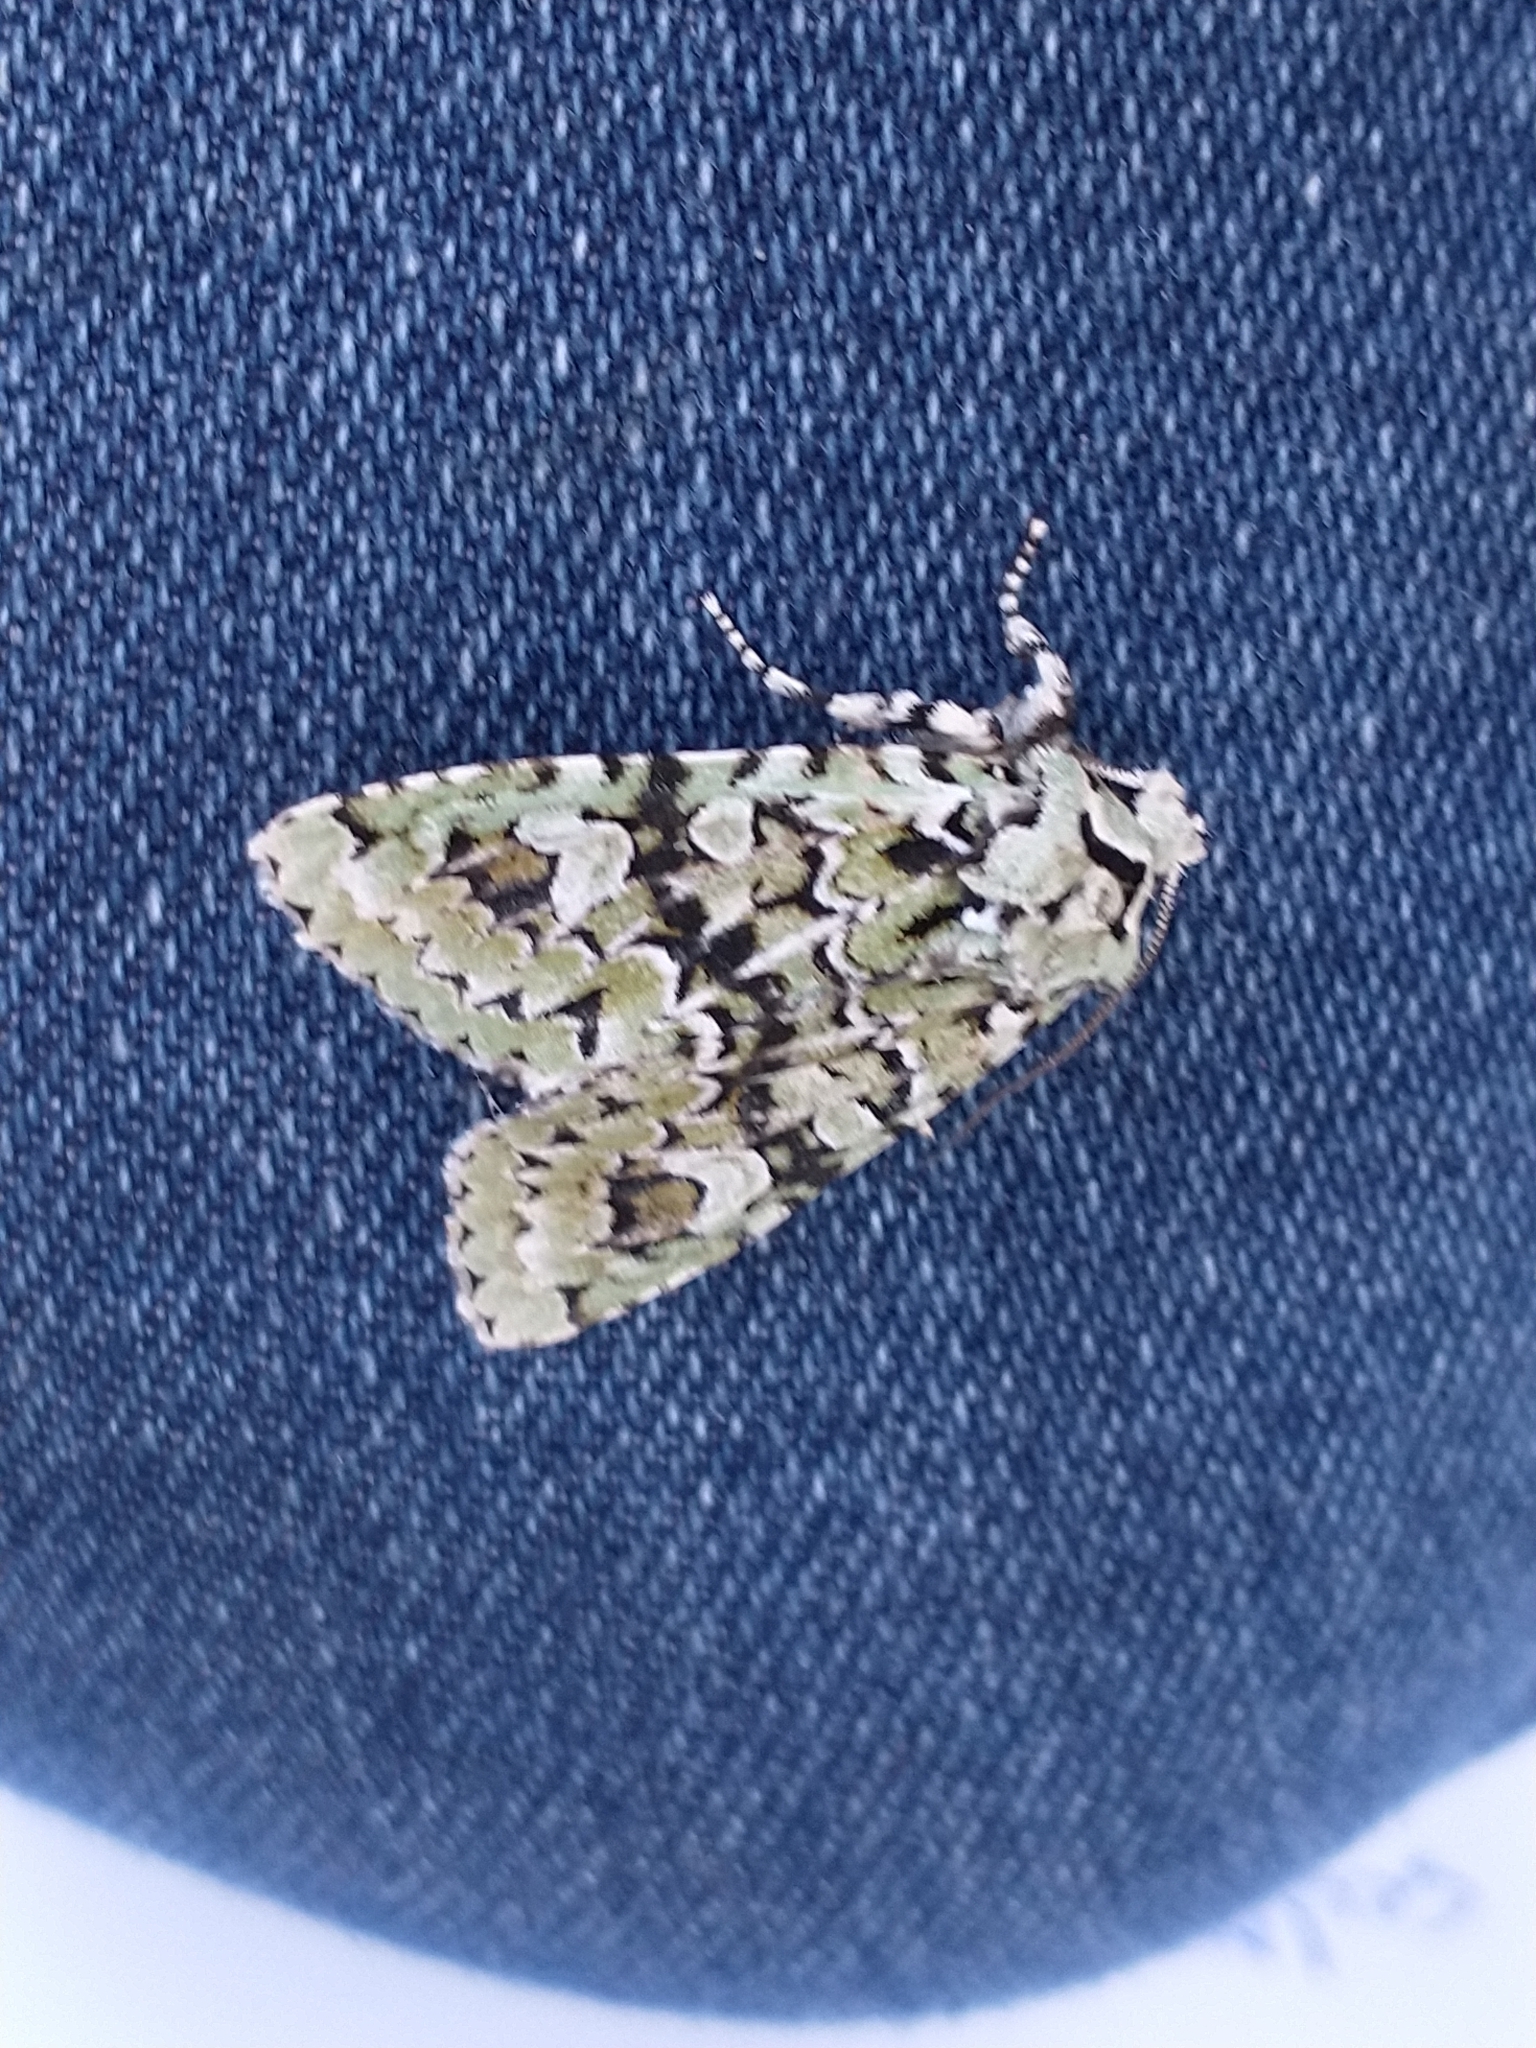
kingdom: Animalia
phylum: Arthropoda
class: Insecta
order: Lepidoptera
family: Noctuidae
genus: Griposia
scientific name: Griposia aprilina
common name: Merveille du jour
